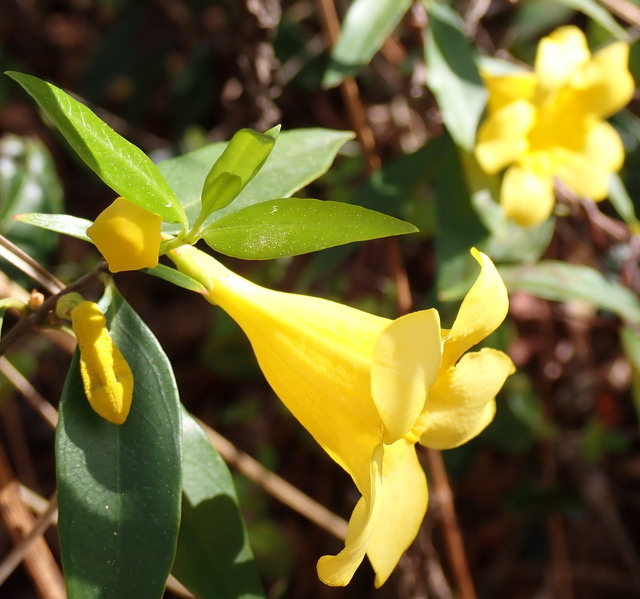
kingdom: Plantae
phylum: Tracheophyta
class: Magnoliopsida
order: Gentianales
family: Gelsemiaceae
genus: Gelsemium
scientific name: Gelsemium sempervirens
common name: Carolina-jasmine
